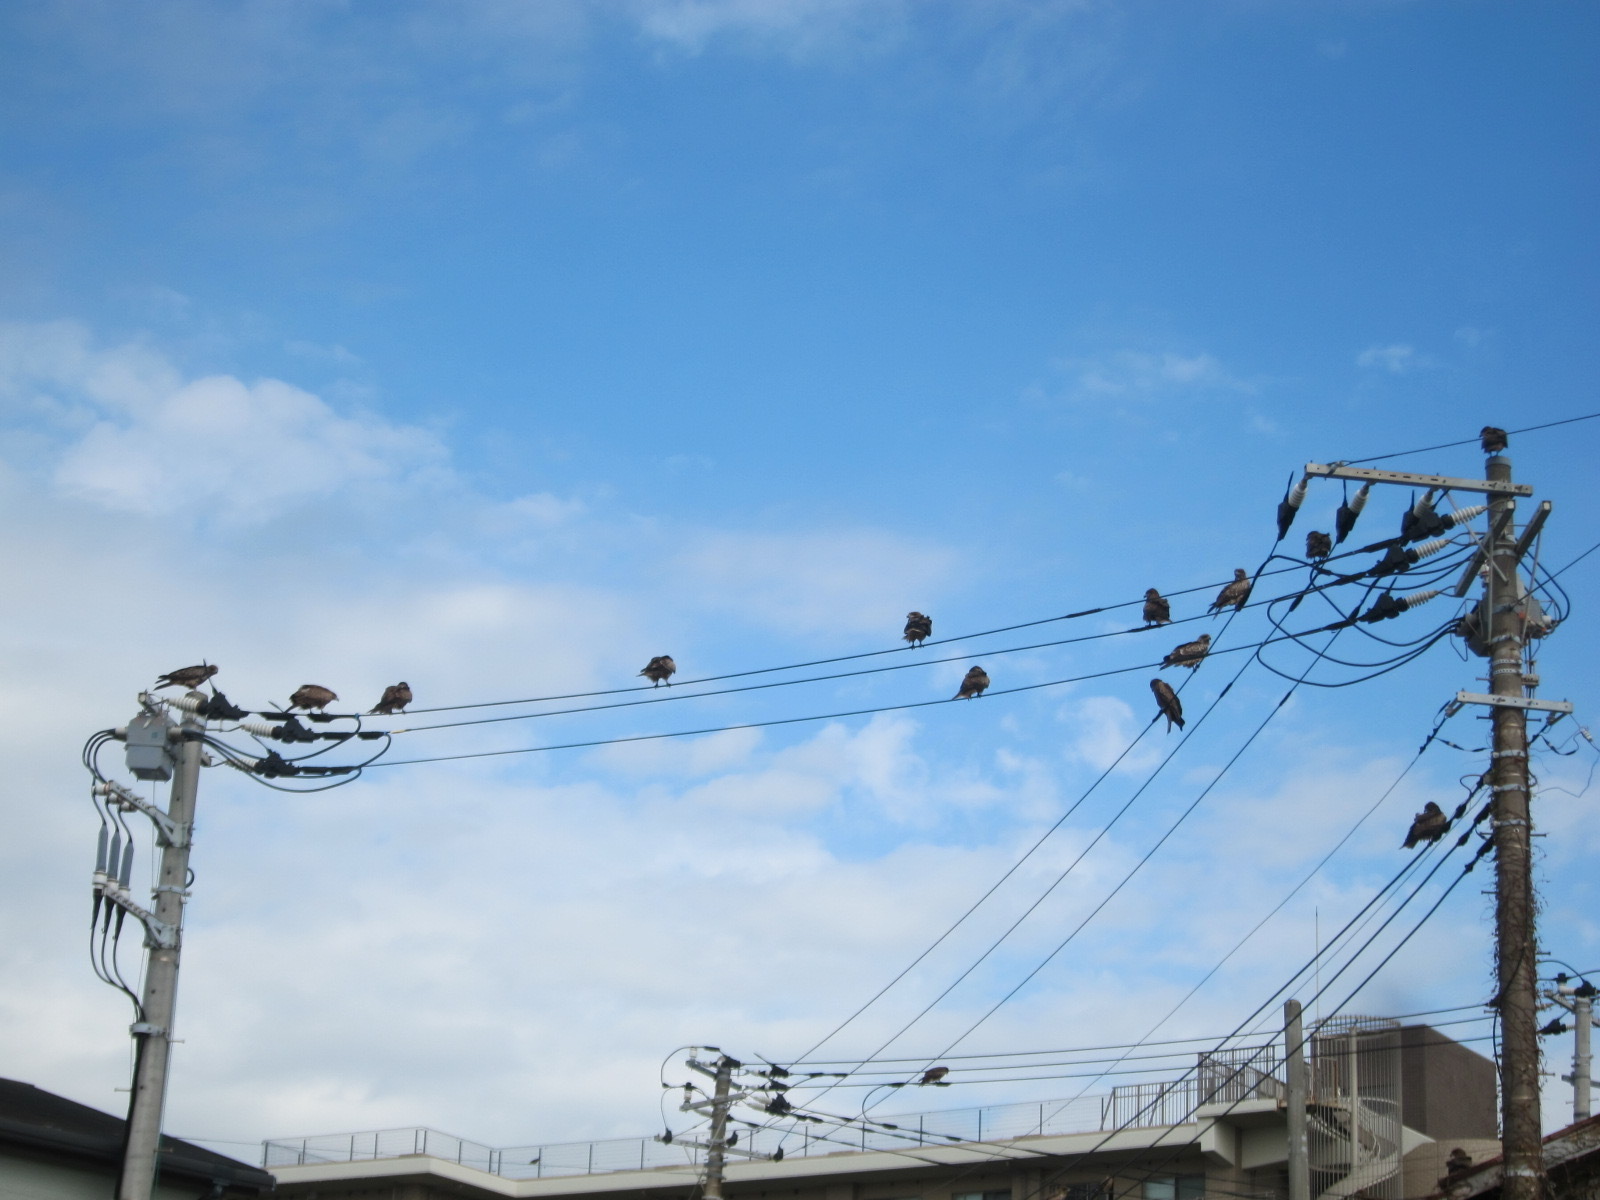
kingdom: Animalia
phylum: Chordata
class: Aves
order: Accipitriformes
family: Accipitridae
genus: Milvus
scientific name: Milvus migrans
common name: Black kite
